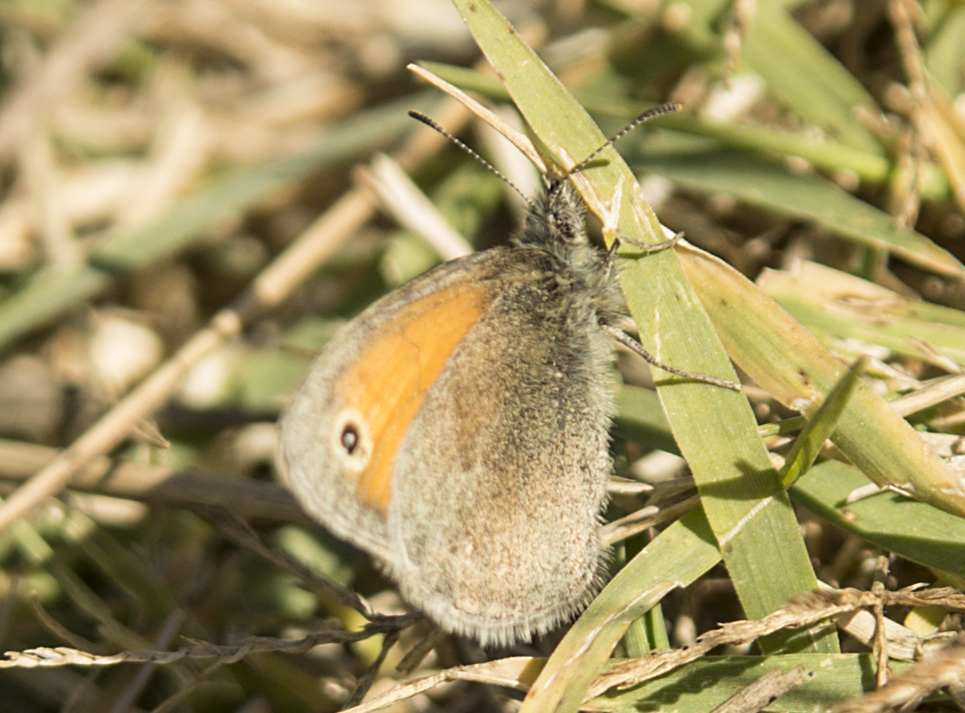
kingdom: Animalia
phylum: Arthropoda
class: Insecta
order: Lepidoptera
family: Nymphalidae
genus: Coenonympha
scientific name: Coenonympha pamphilus
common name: Small heath
